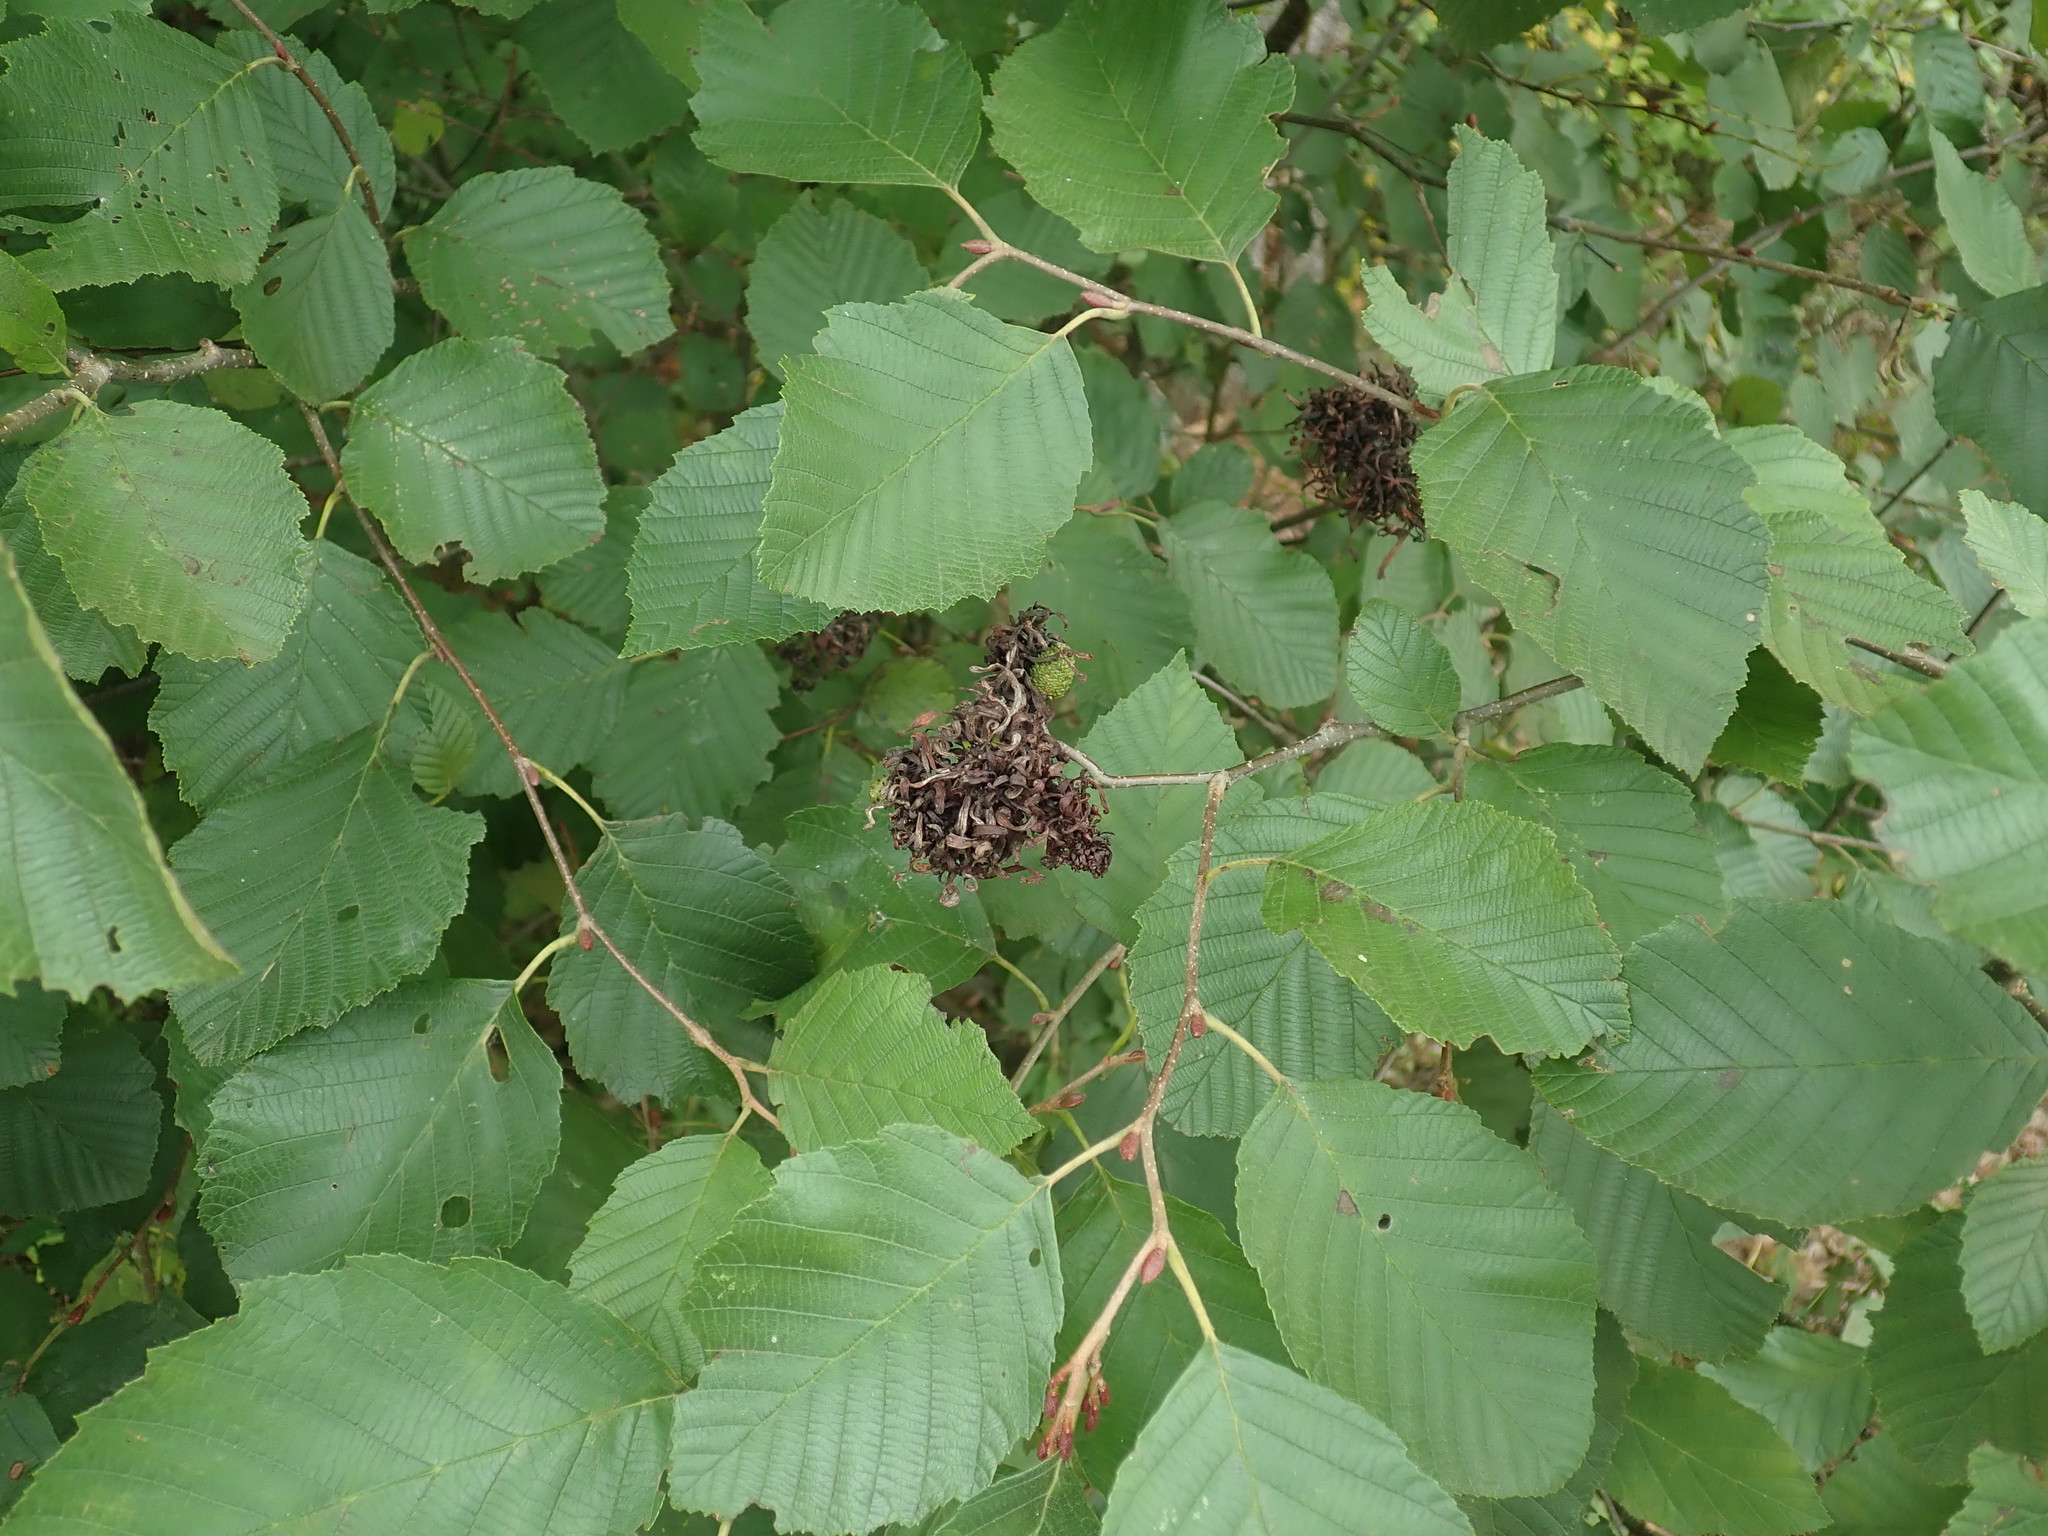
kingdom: Fungi
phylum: Ascomycota
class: Taphrinomycetes
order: Taphrinales
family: Taphrinaceae
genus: Taphrina
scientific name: Taphrina robinsoniana
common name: Eastern american alder tongue gall fungus
